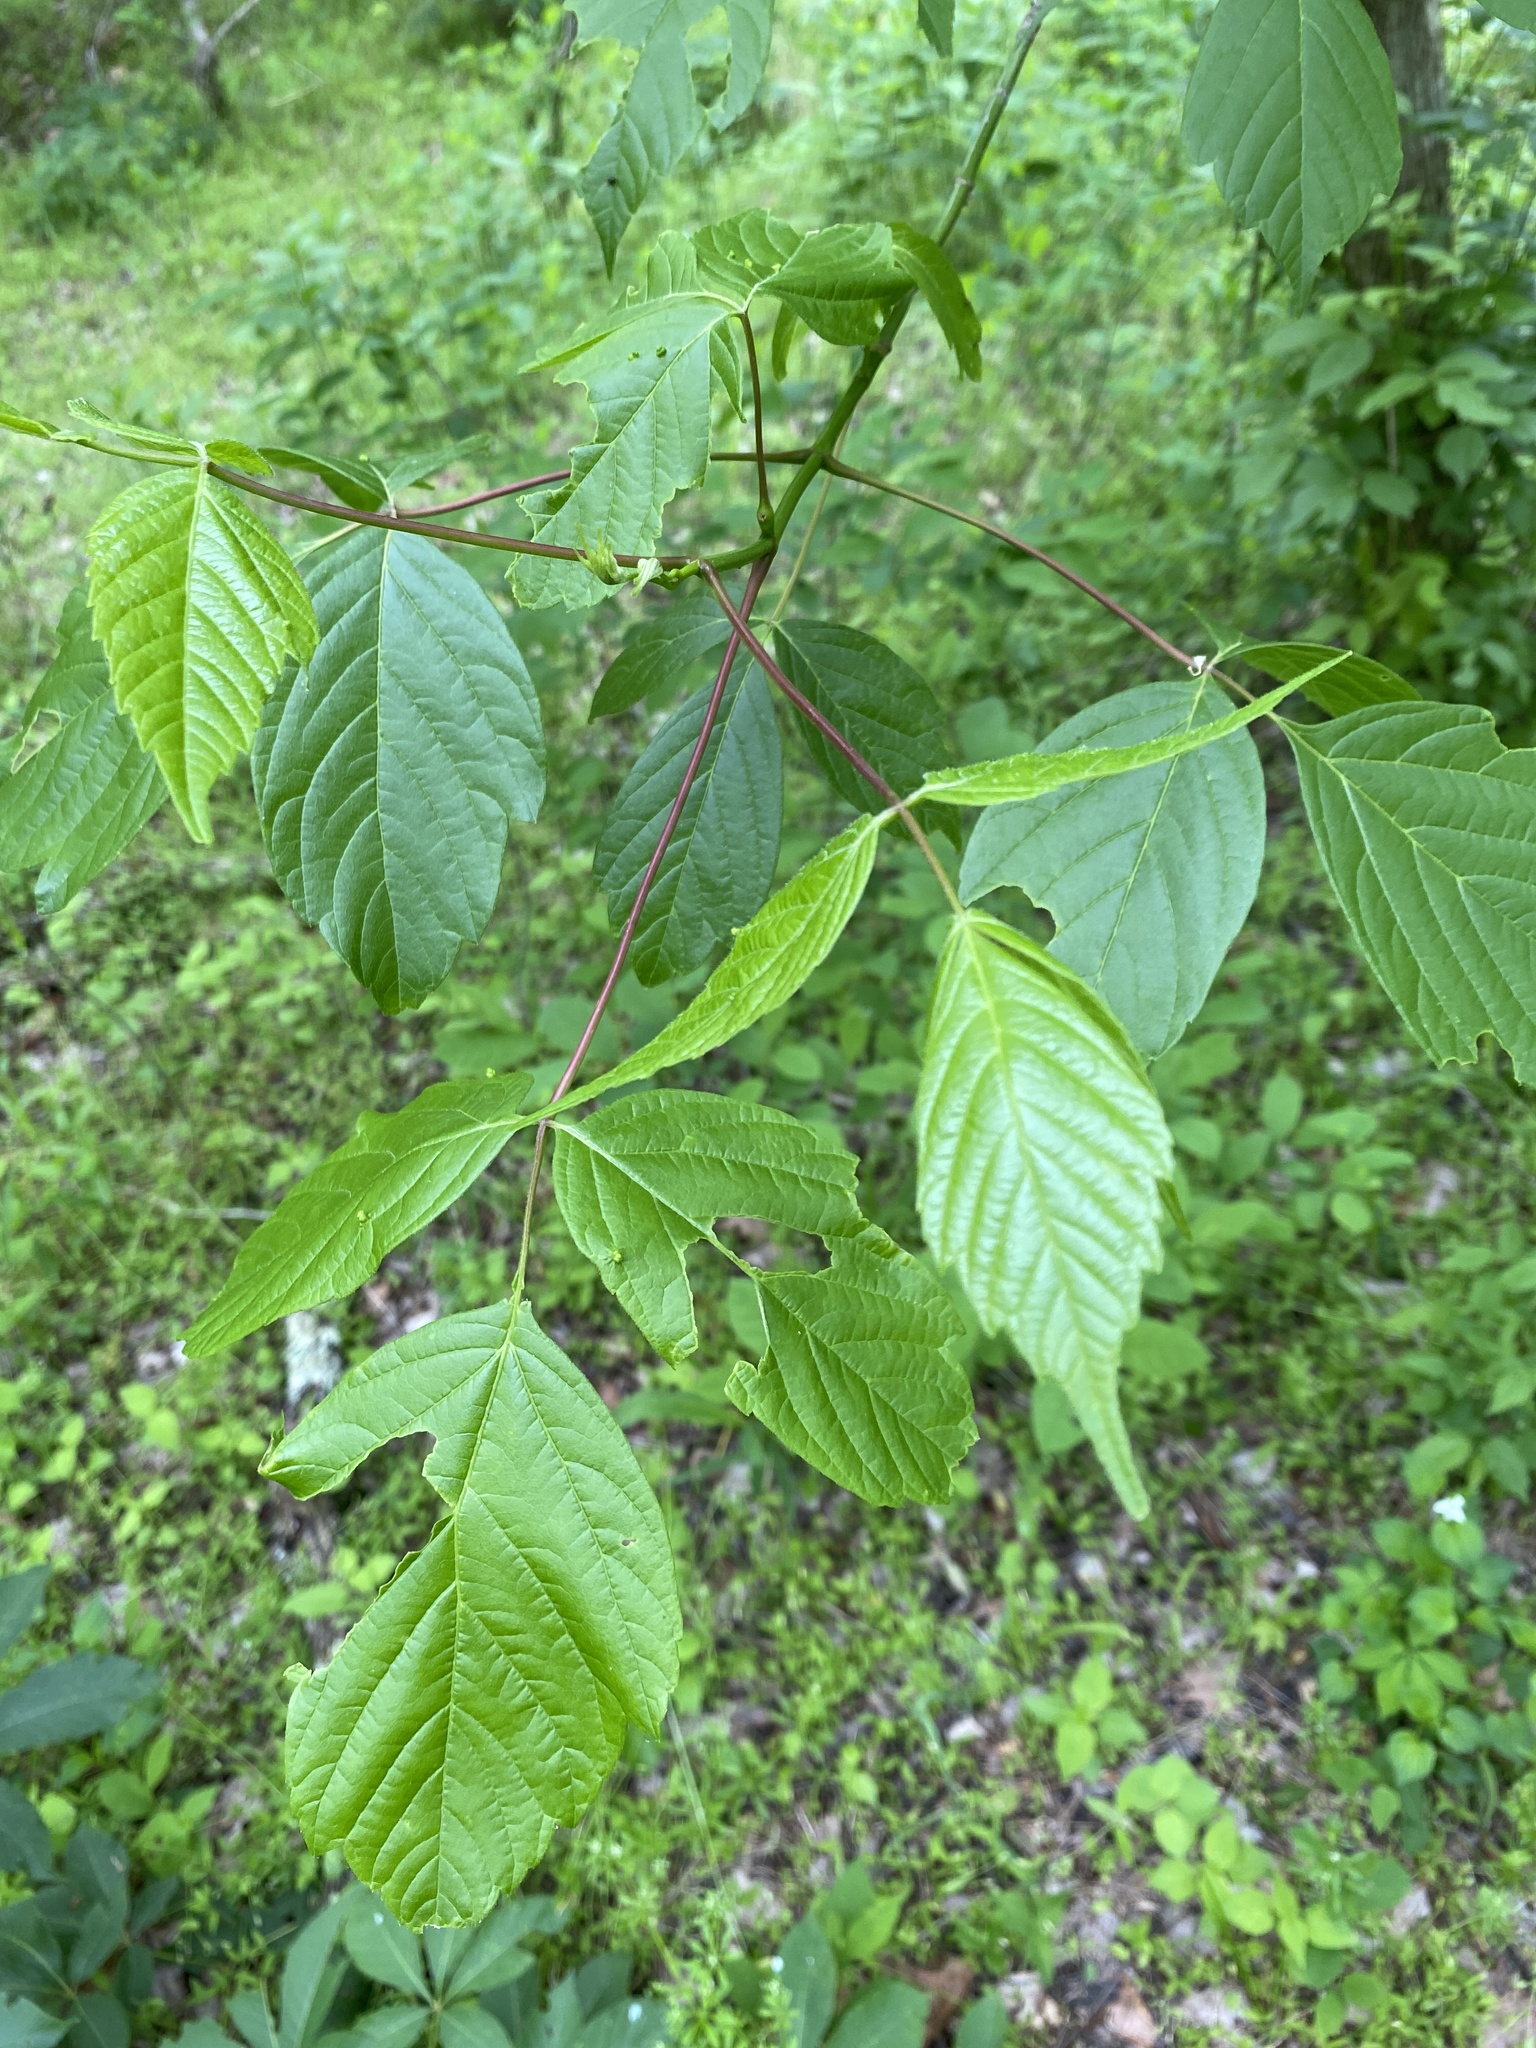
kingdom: Plantae
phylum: Tracheophyta
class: Magnoliopsida
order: Sapindales
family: Sapindaceae
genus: Acer
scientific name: Acer negundo
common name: Ashleaf maple
